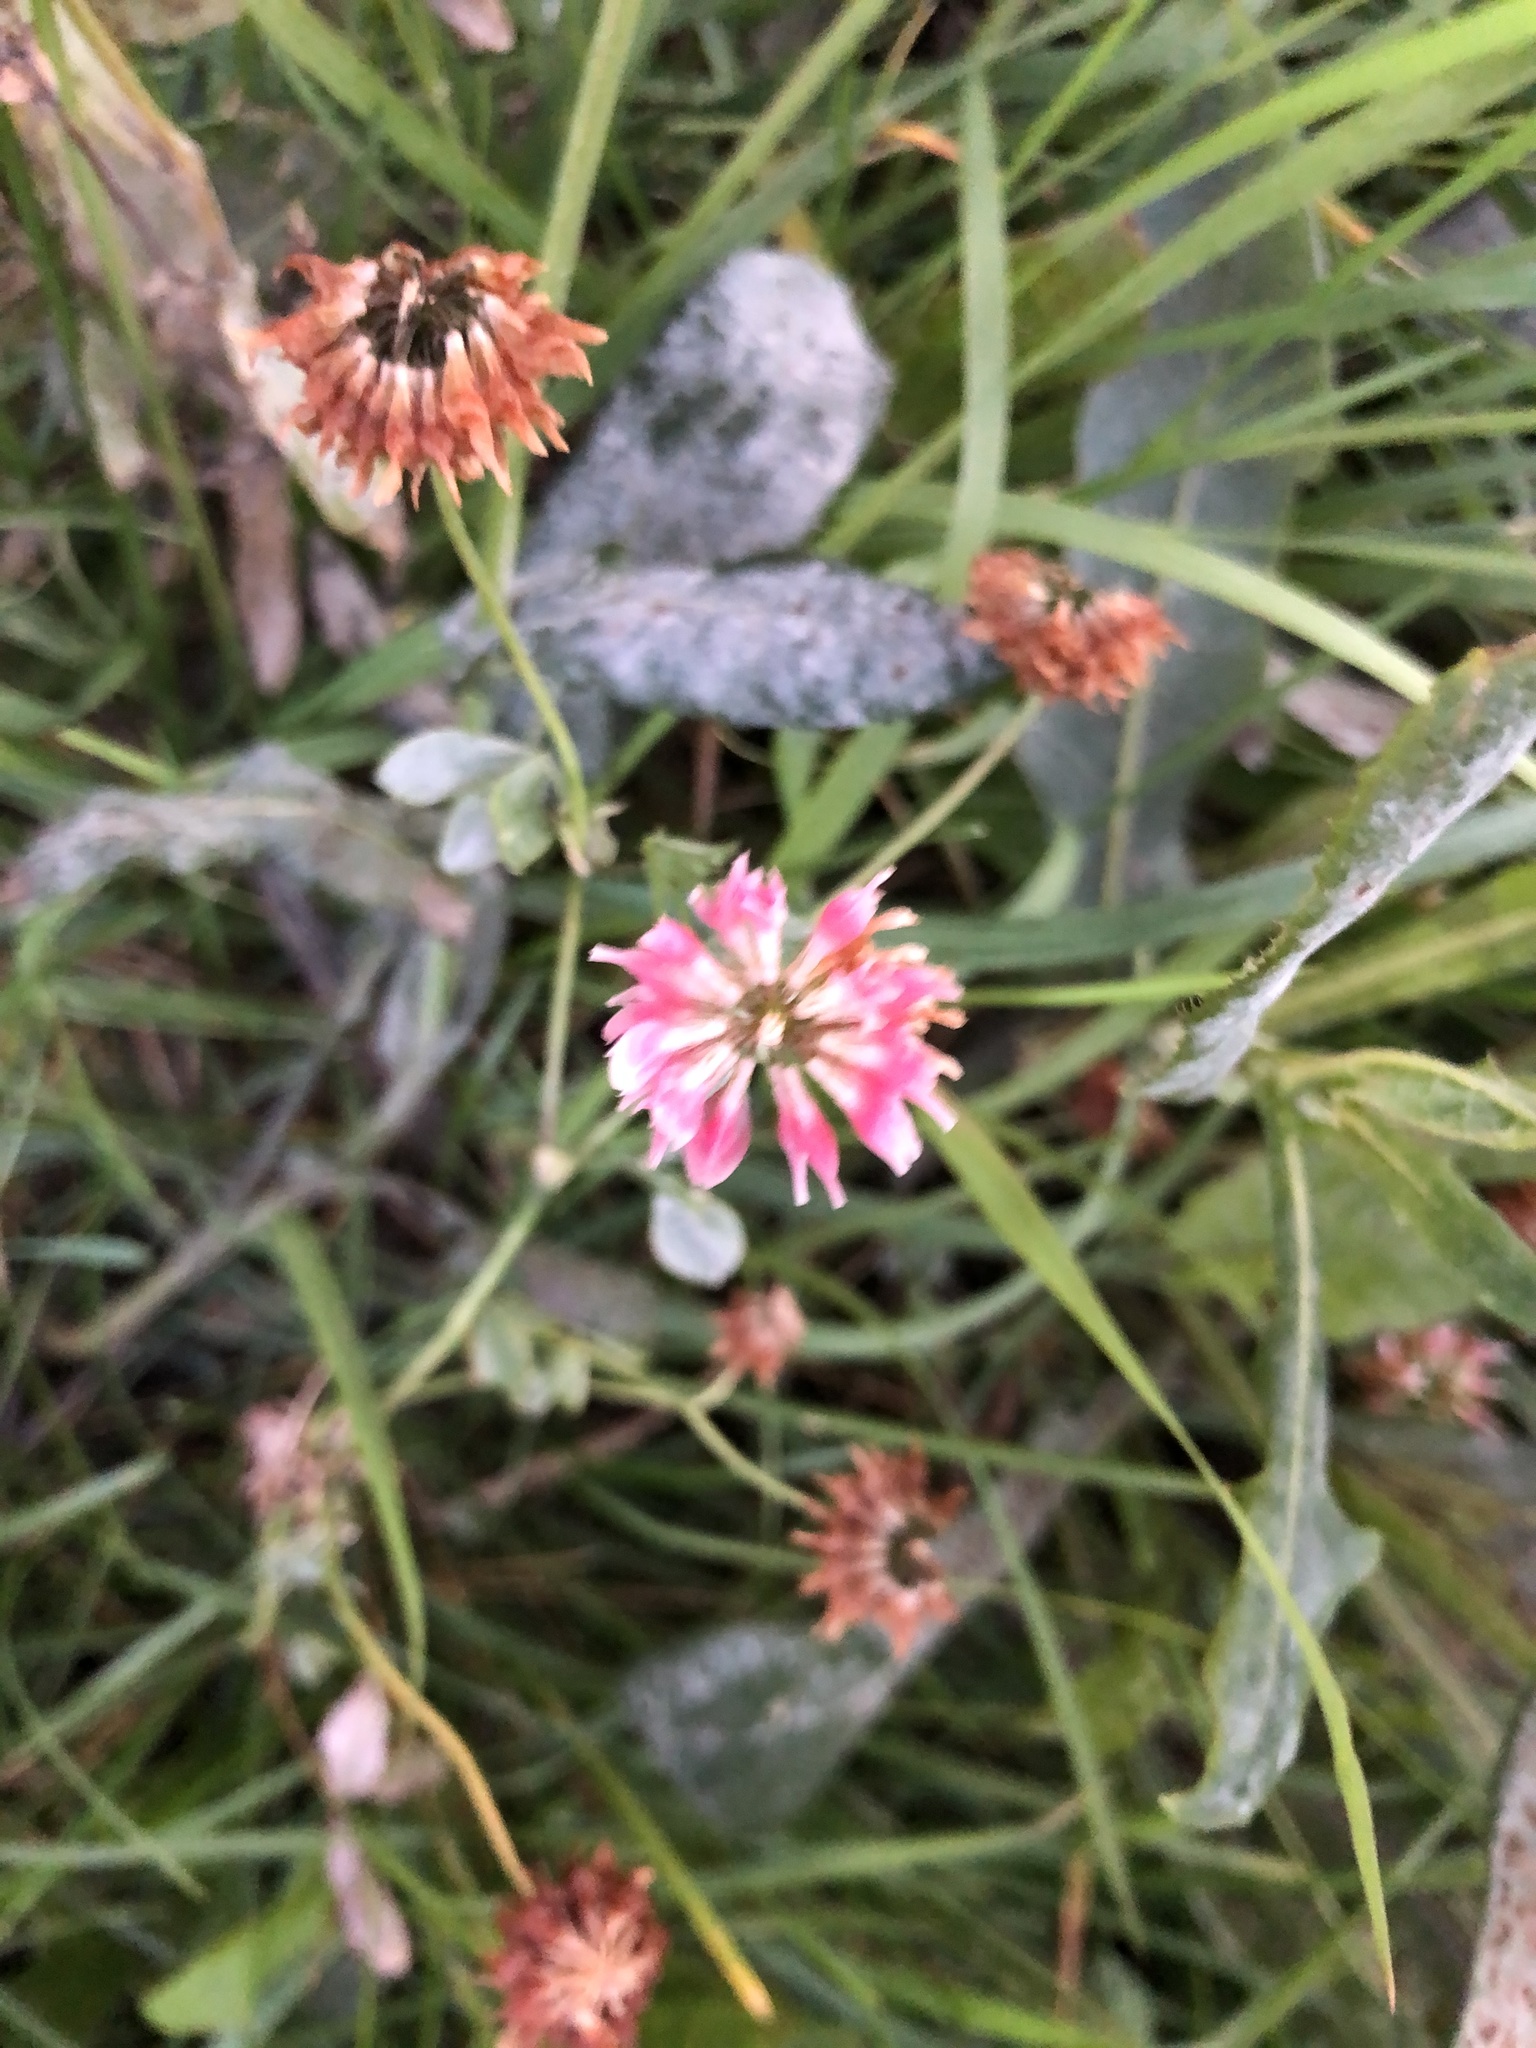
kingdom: Plantae
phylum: Tracheophyta
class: Magnoliopsida
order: Fabales
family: Fabaceae
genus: Trifolium
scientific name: Trifolium hybridum
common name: Alsike clover
